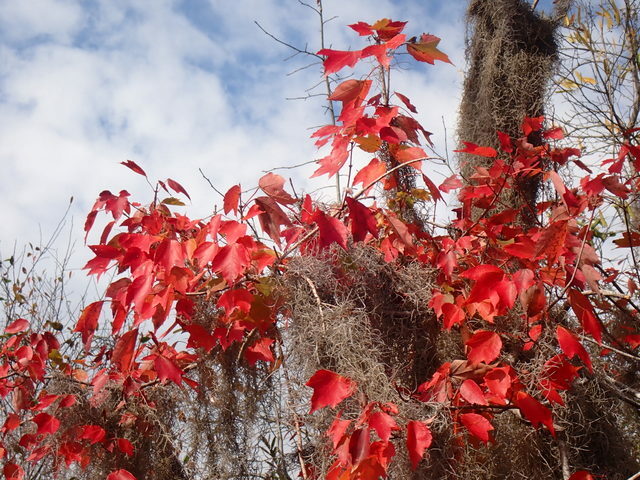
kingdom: Plantae
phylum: Tracheophyta
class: Magnoliopsida
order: Sapindales
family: Sapindaceae
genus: Acer
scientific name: Acer rubrum
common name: Red maple
